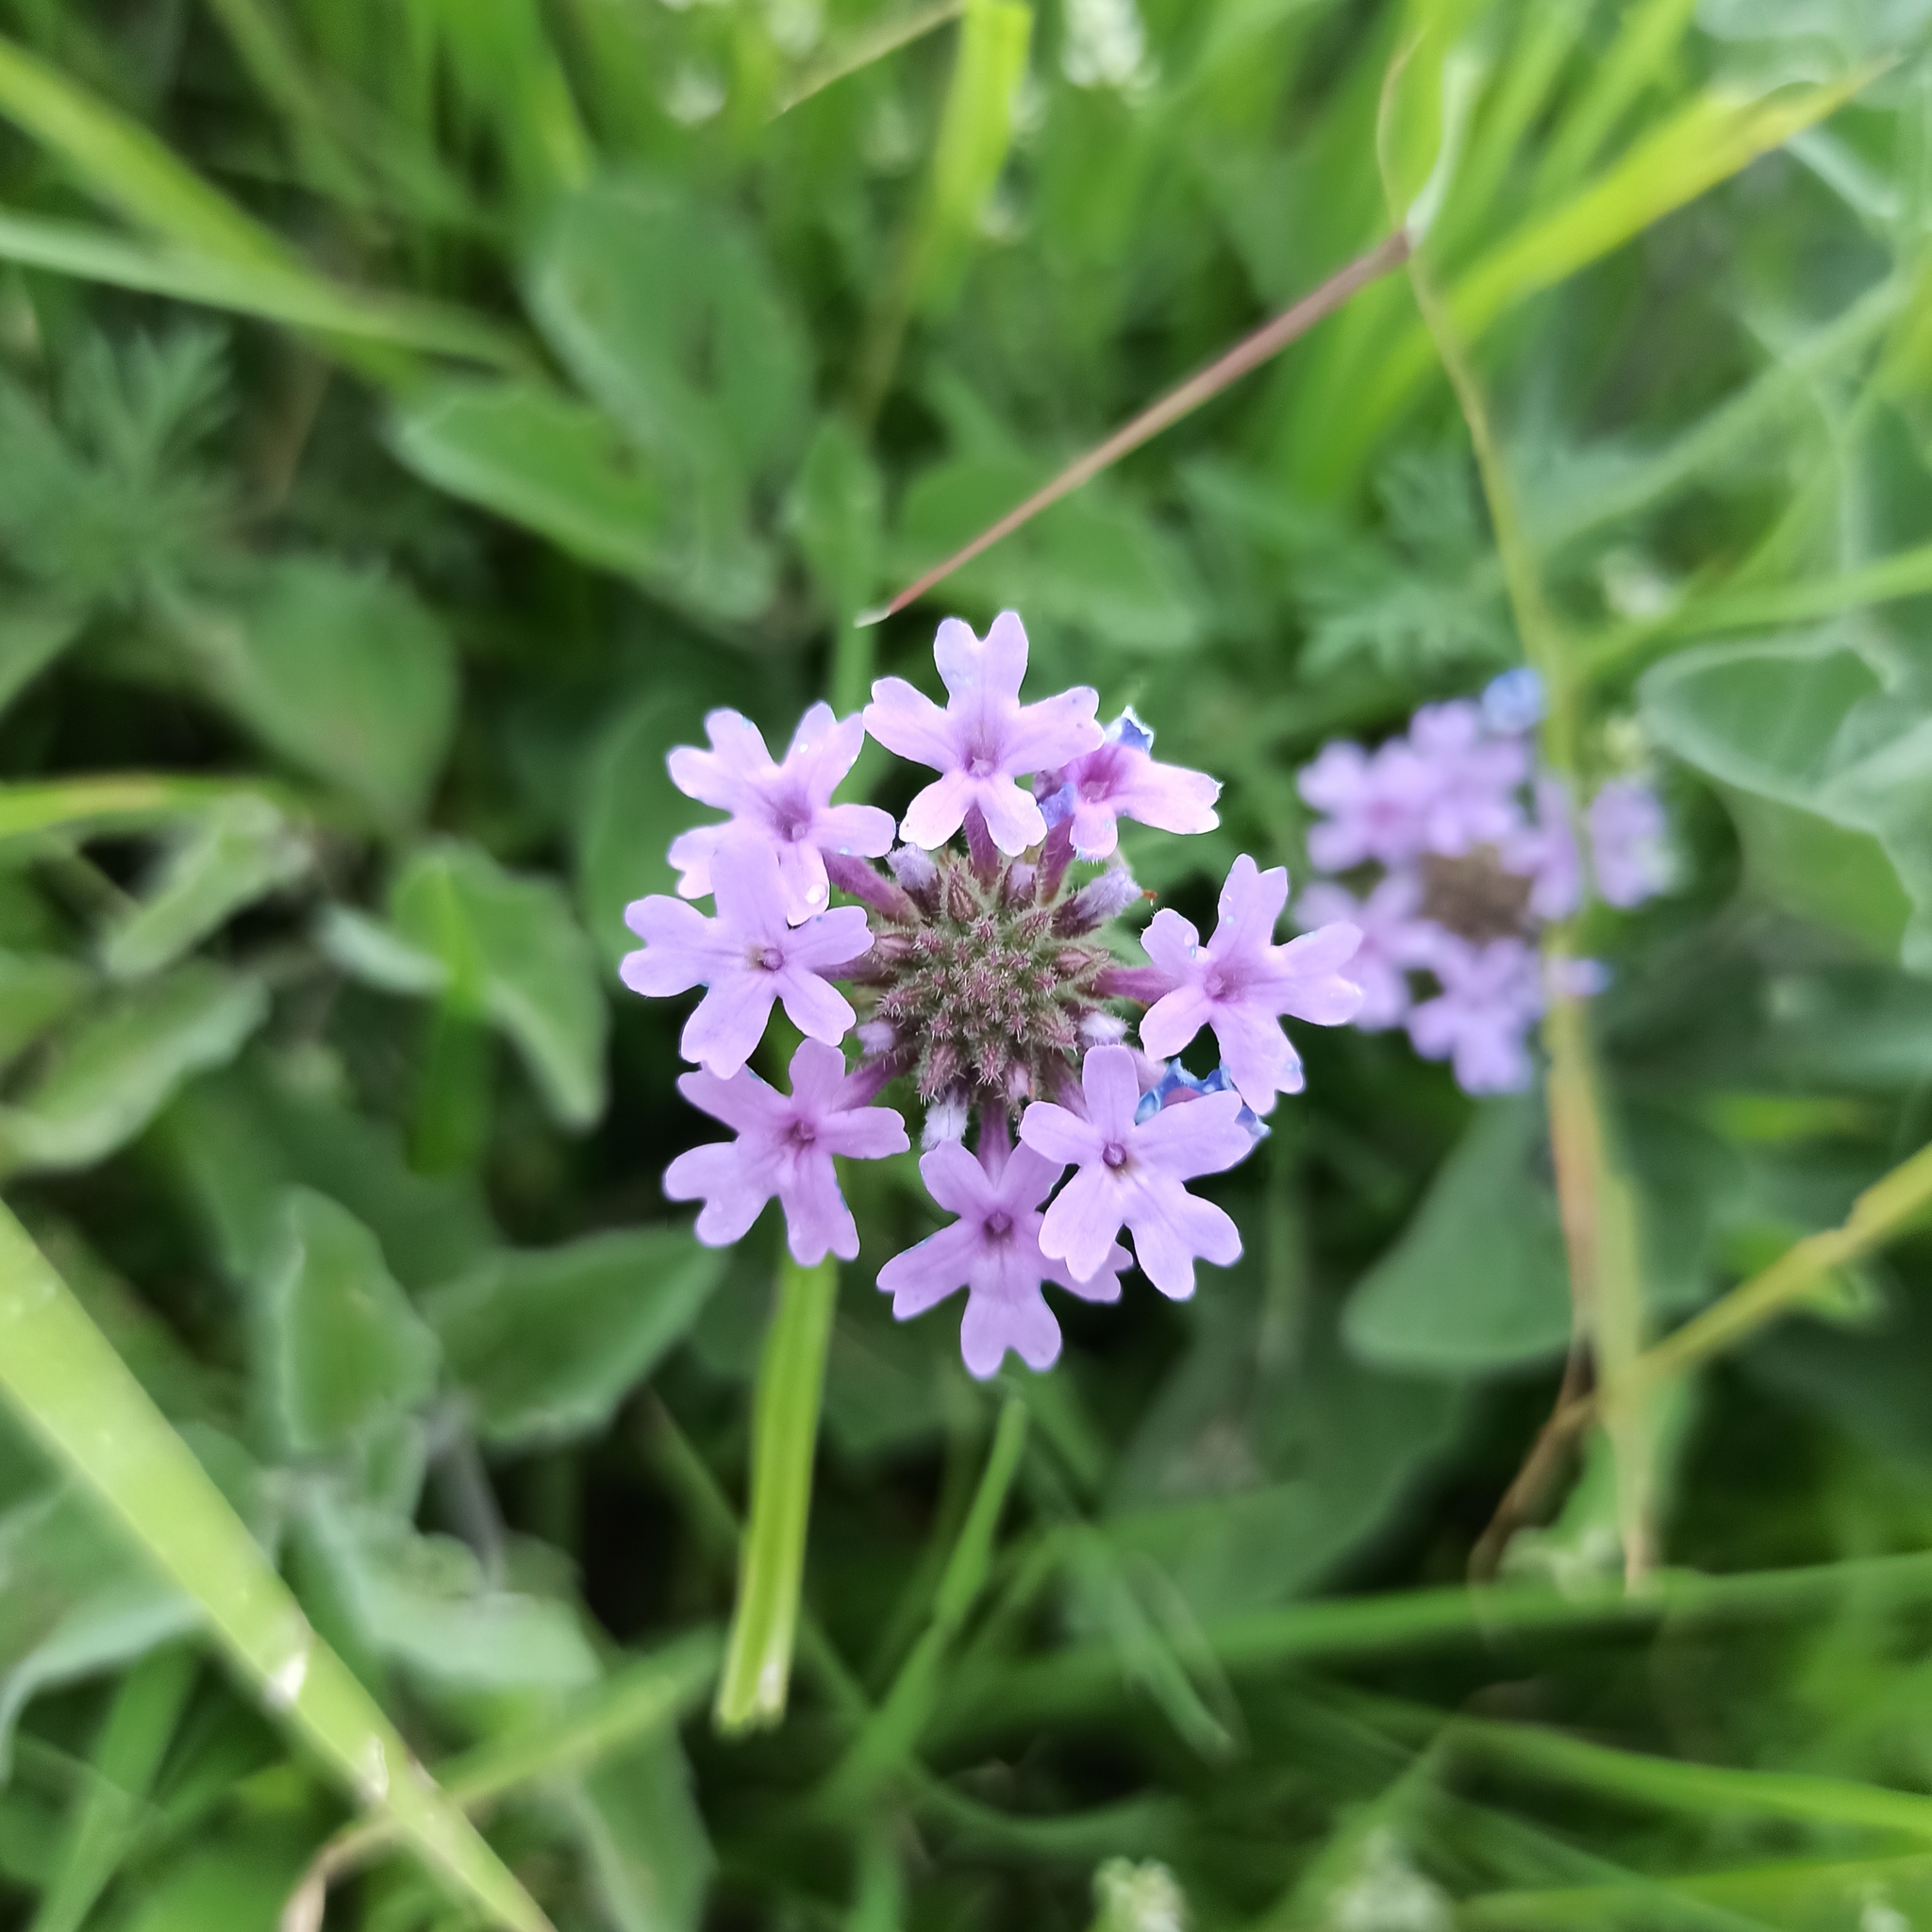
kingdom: Plantae
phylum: Tracheophyta
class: Magnoliopsida
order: Lamiales
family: Verbenaceae
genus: Verbena
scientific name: Verbena bipinnatifida
